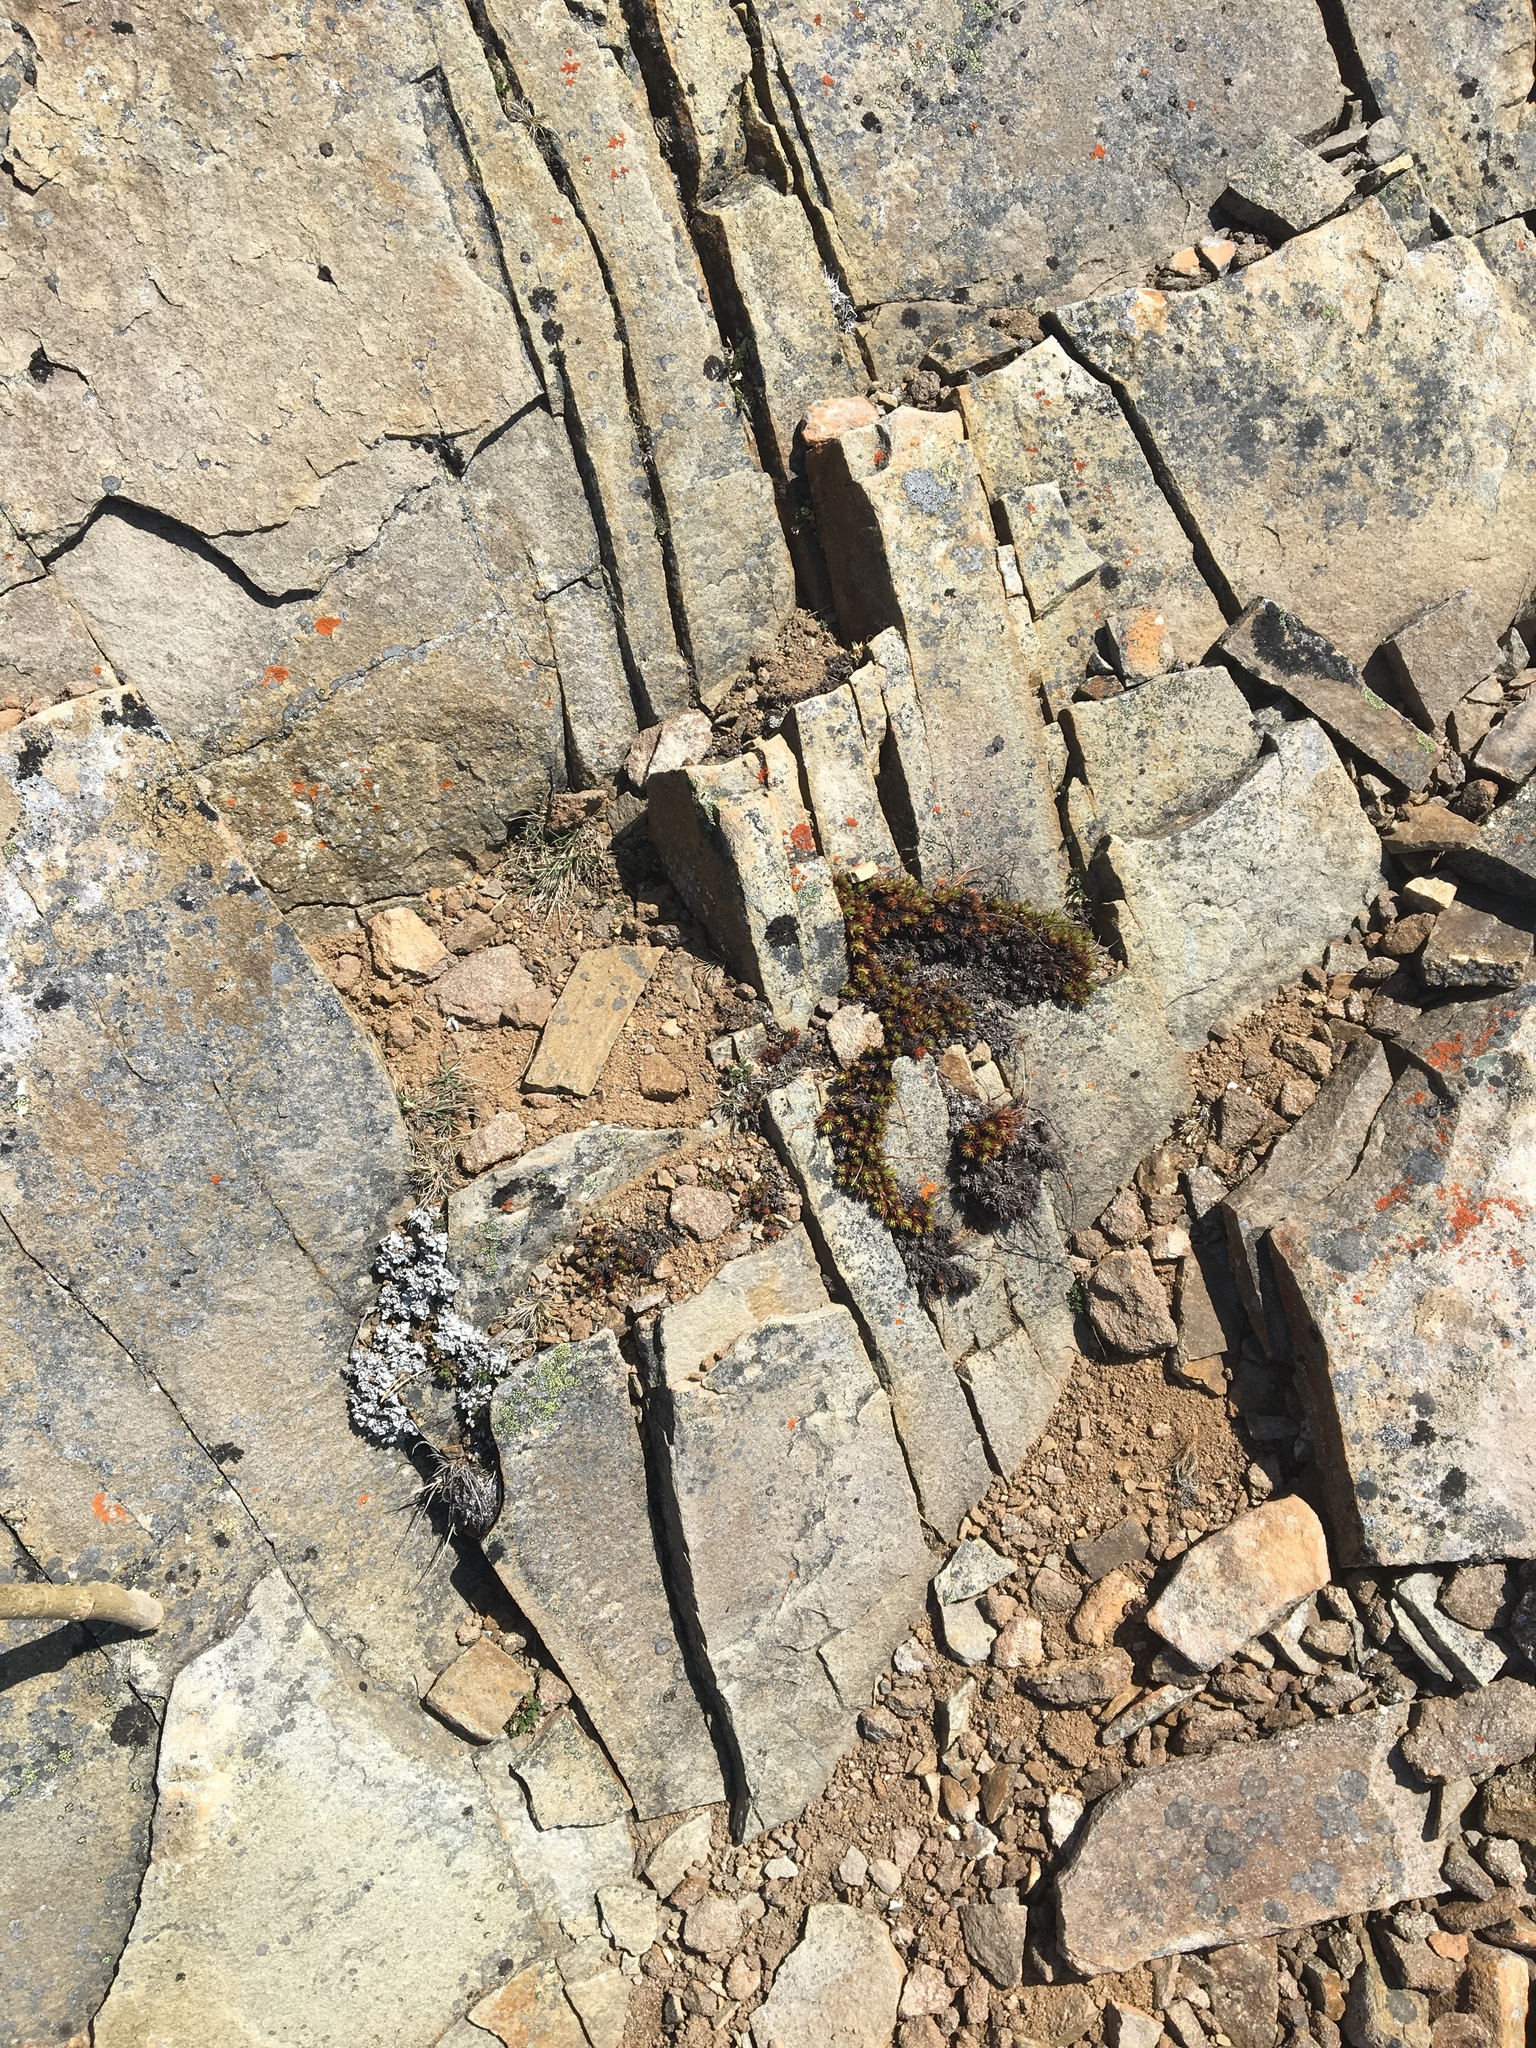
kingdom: Plantae
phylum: Tracheophyta
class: Magnoliopsida
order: Saxifragales
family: Saxifragaceae
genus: Saxifraga
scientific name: Saxifraga bronchialis
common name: Matted saxifrage
